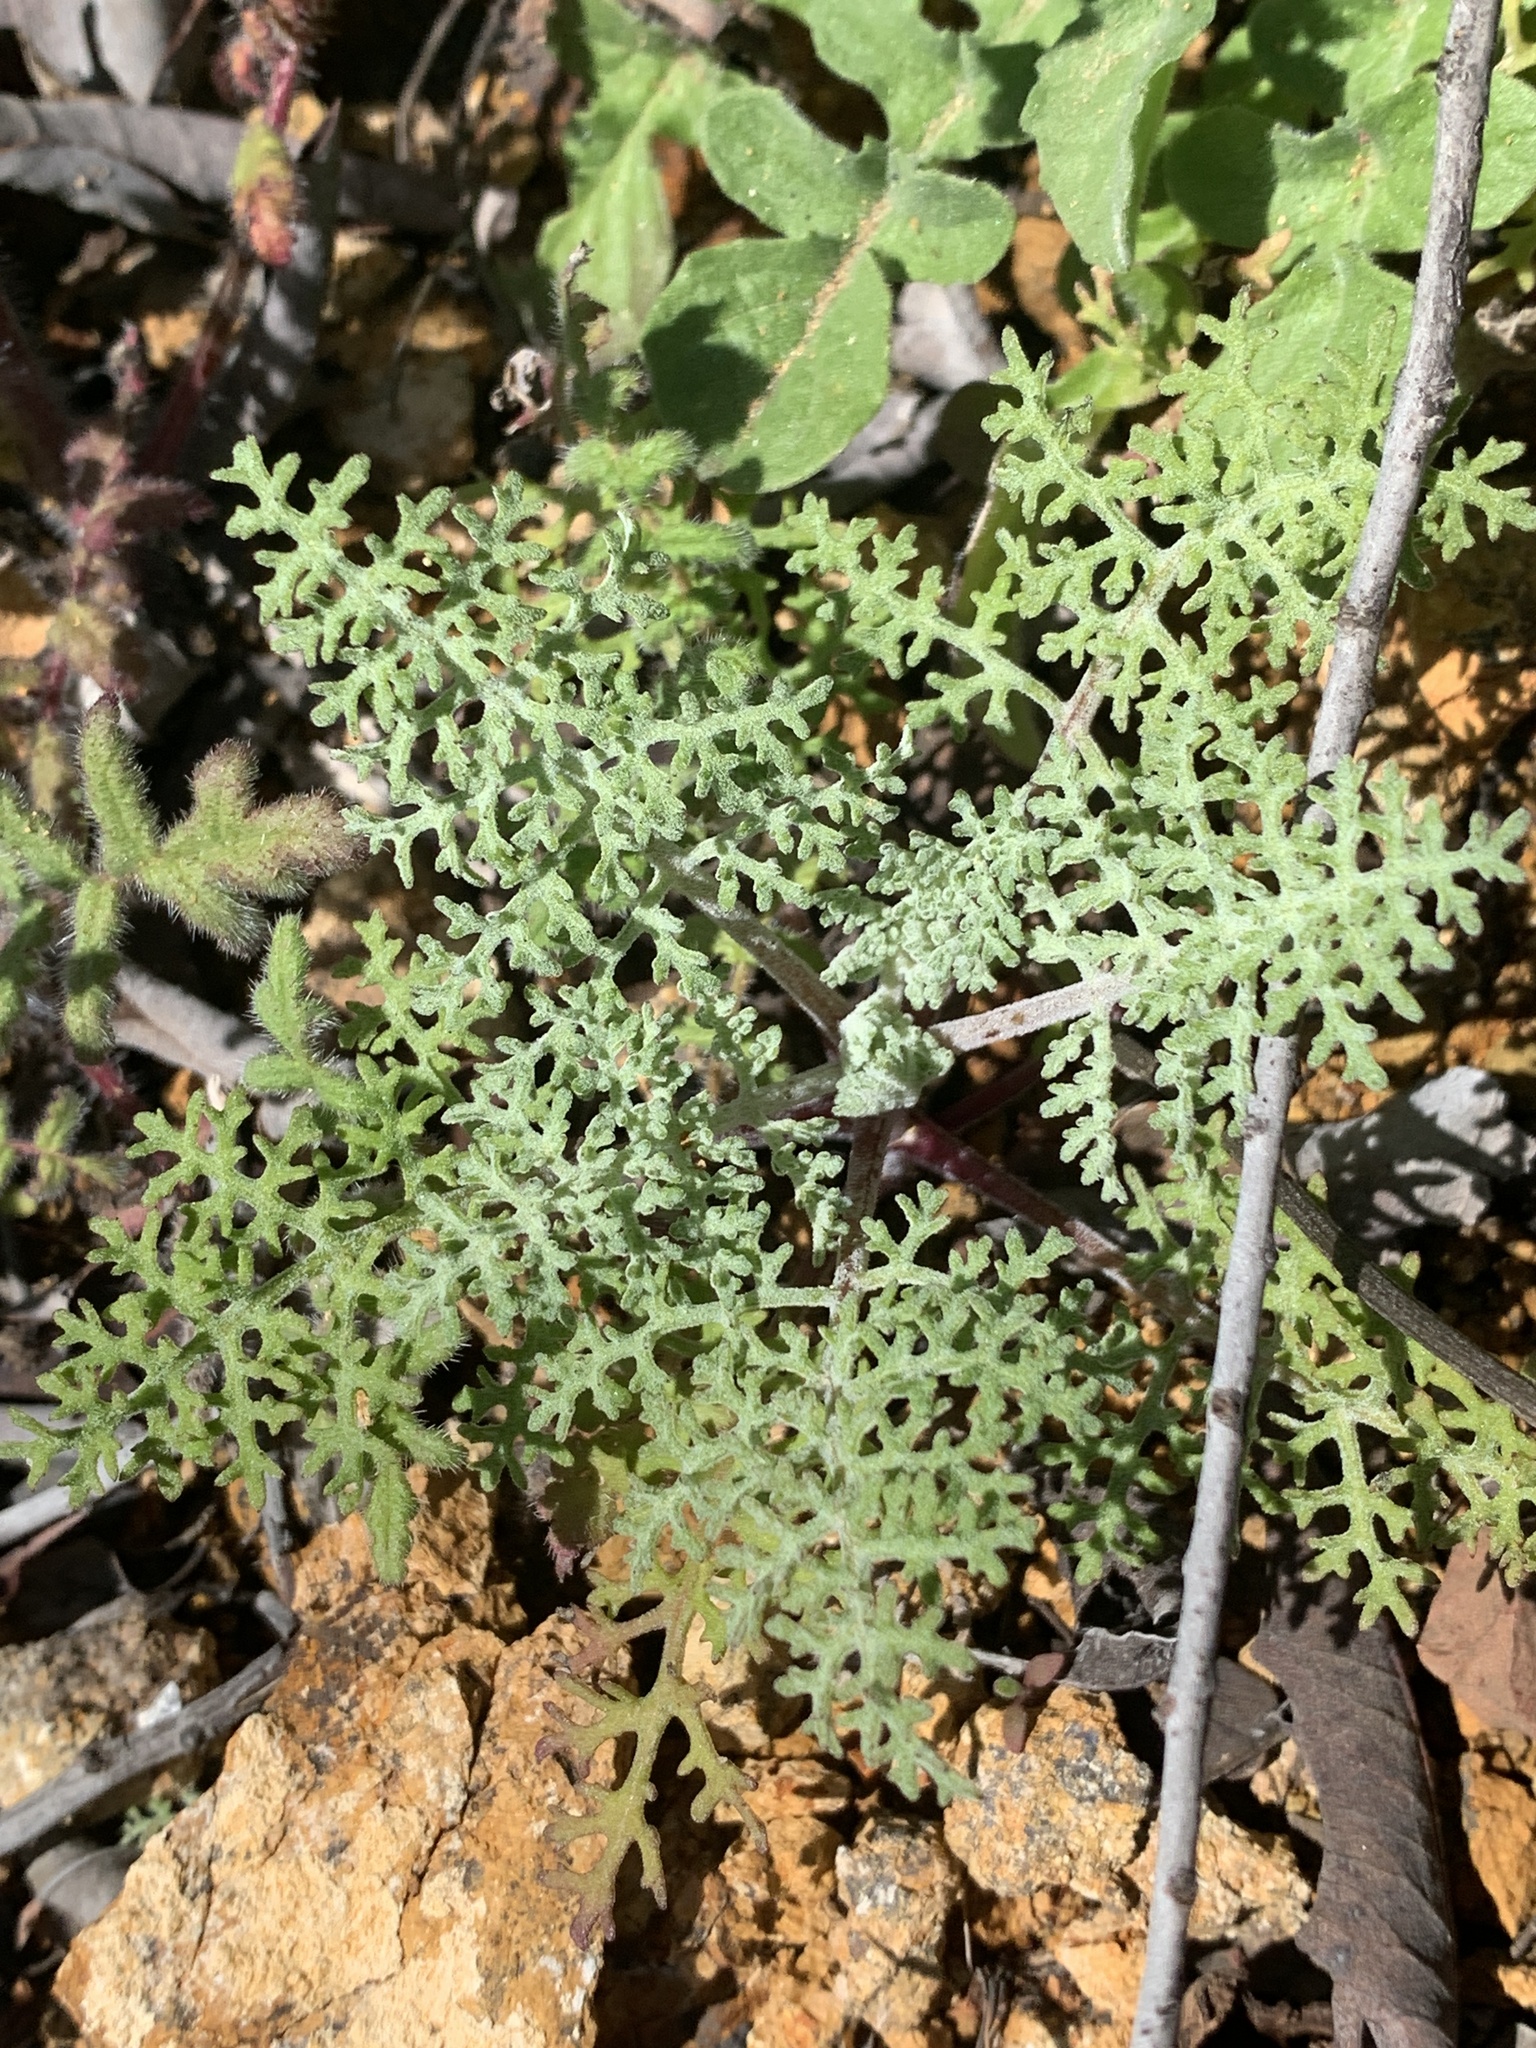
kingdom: Plantae
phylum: Tracheophyta
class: Magnoliopsida
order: Lamiales
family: Lamiaceae
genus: Salvia
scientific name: Salvia columbariae
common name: Chia
